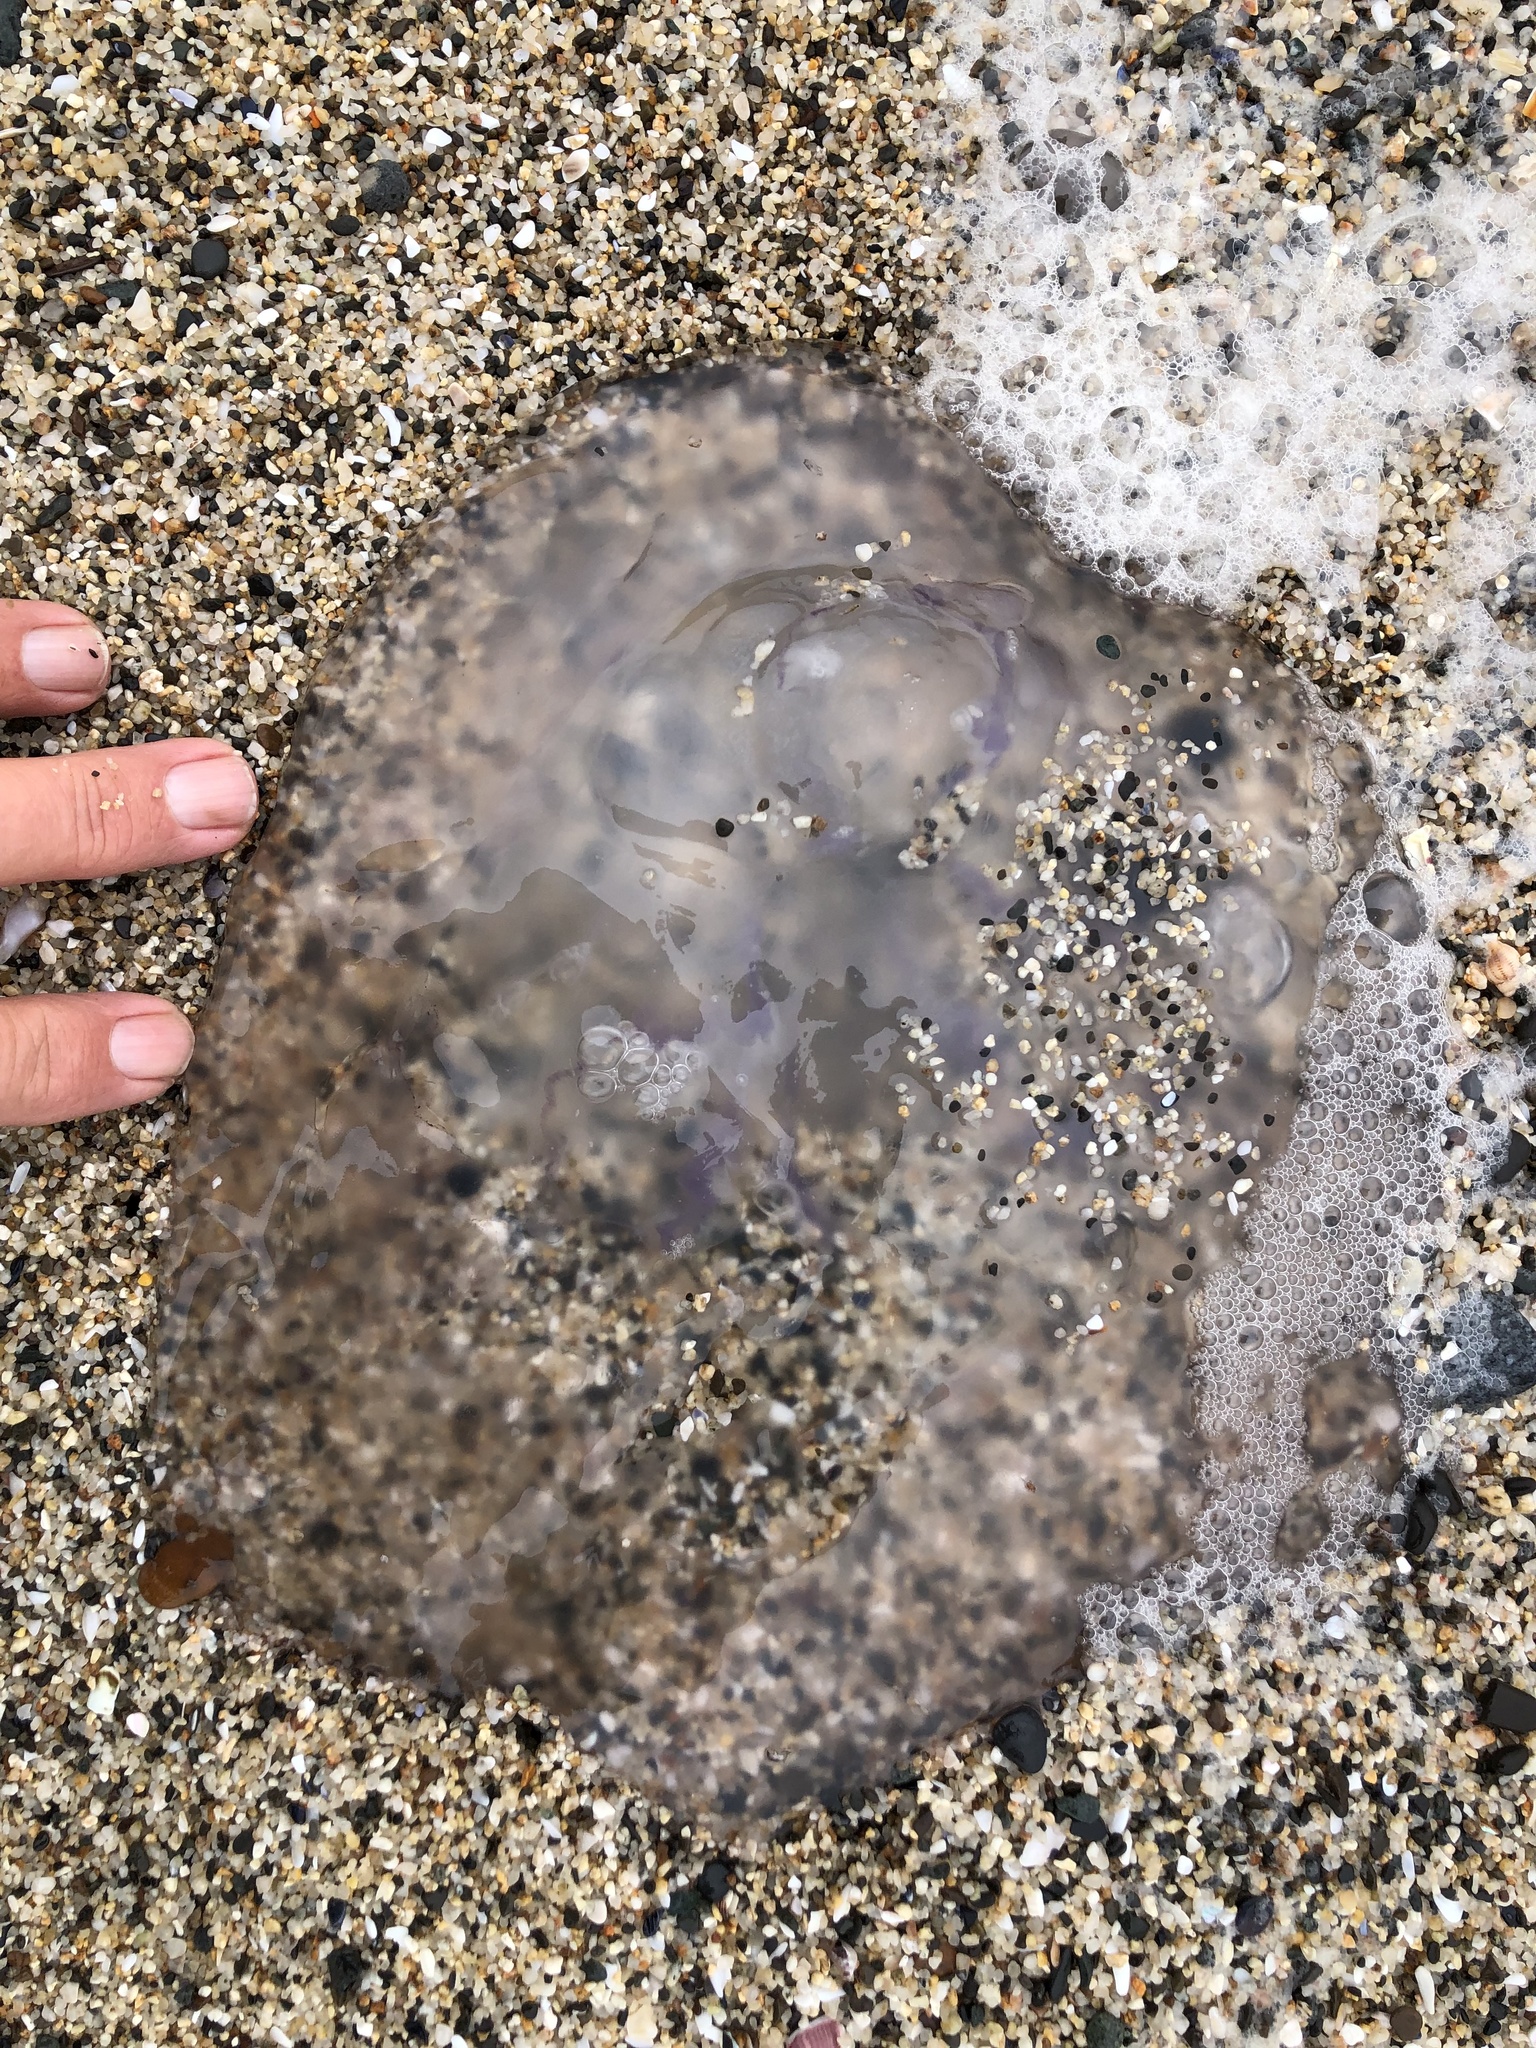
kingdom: Animalia
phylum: Cnidaria
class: Scyphozoa
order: Semaeostomeae
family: Ulmaridae
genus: Aurelia
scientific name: Aurelia labiata
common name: Pacific moon jelly
